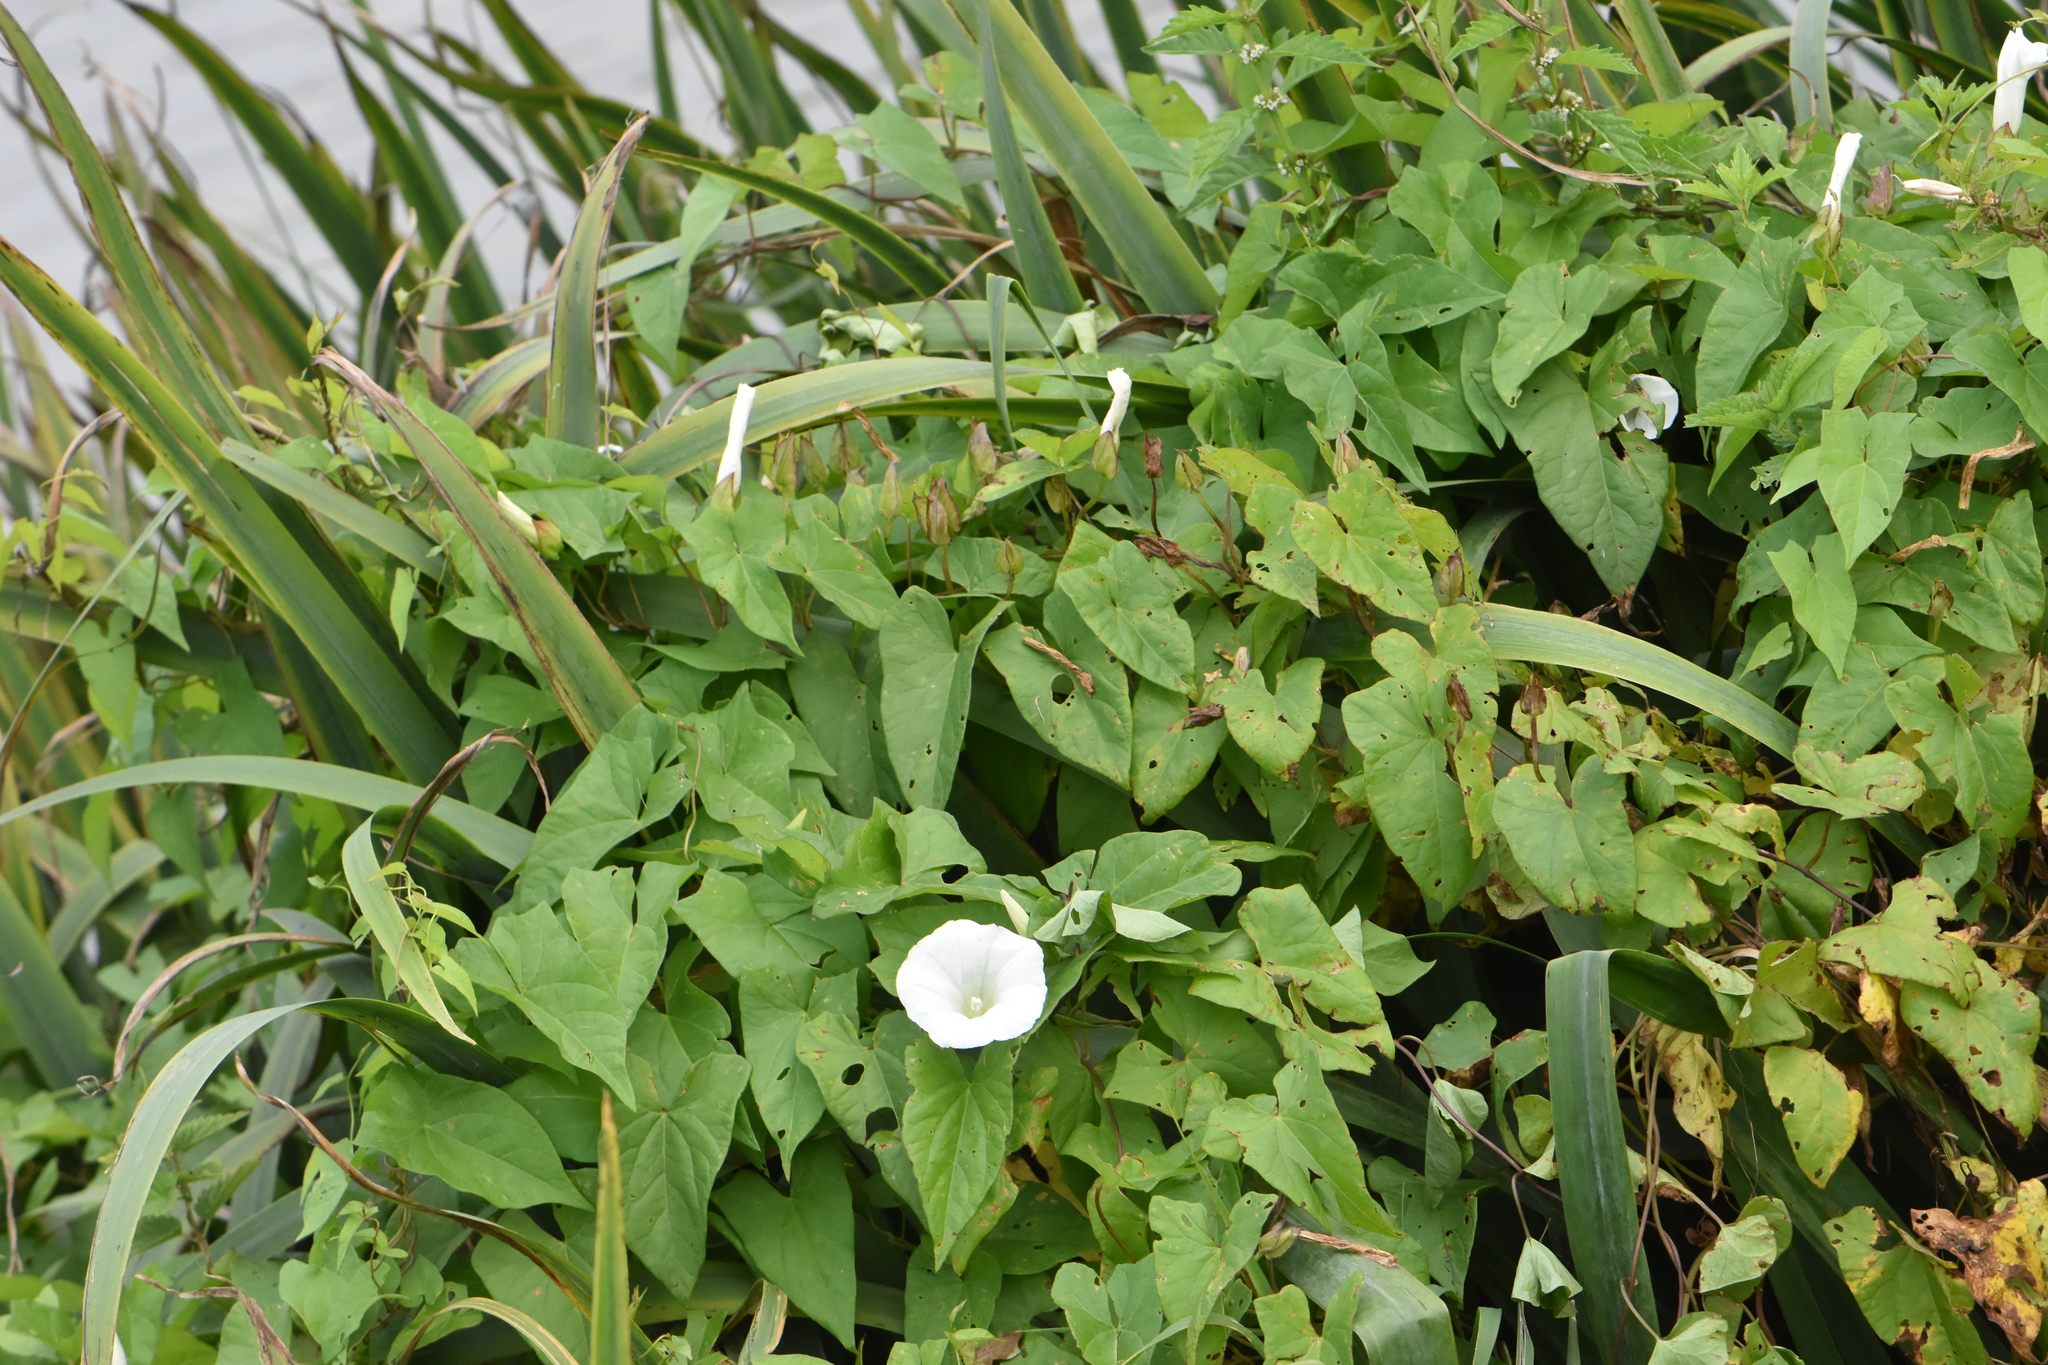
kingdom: Plantae
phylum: Tracheophyta
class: Magnoliopsida
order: Solanales
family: Convolvulaceae
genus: Calystegia
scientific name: Calystegia sepium
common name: Hedge bindweed
